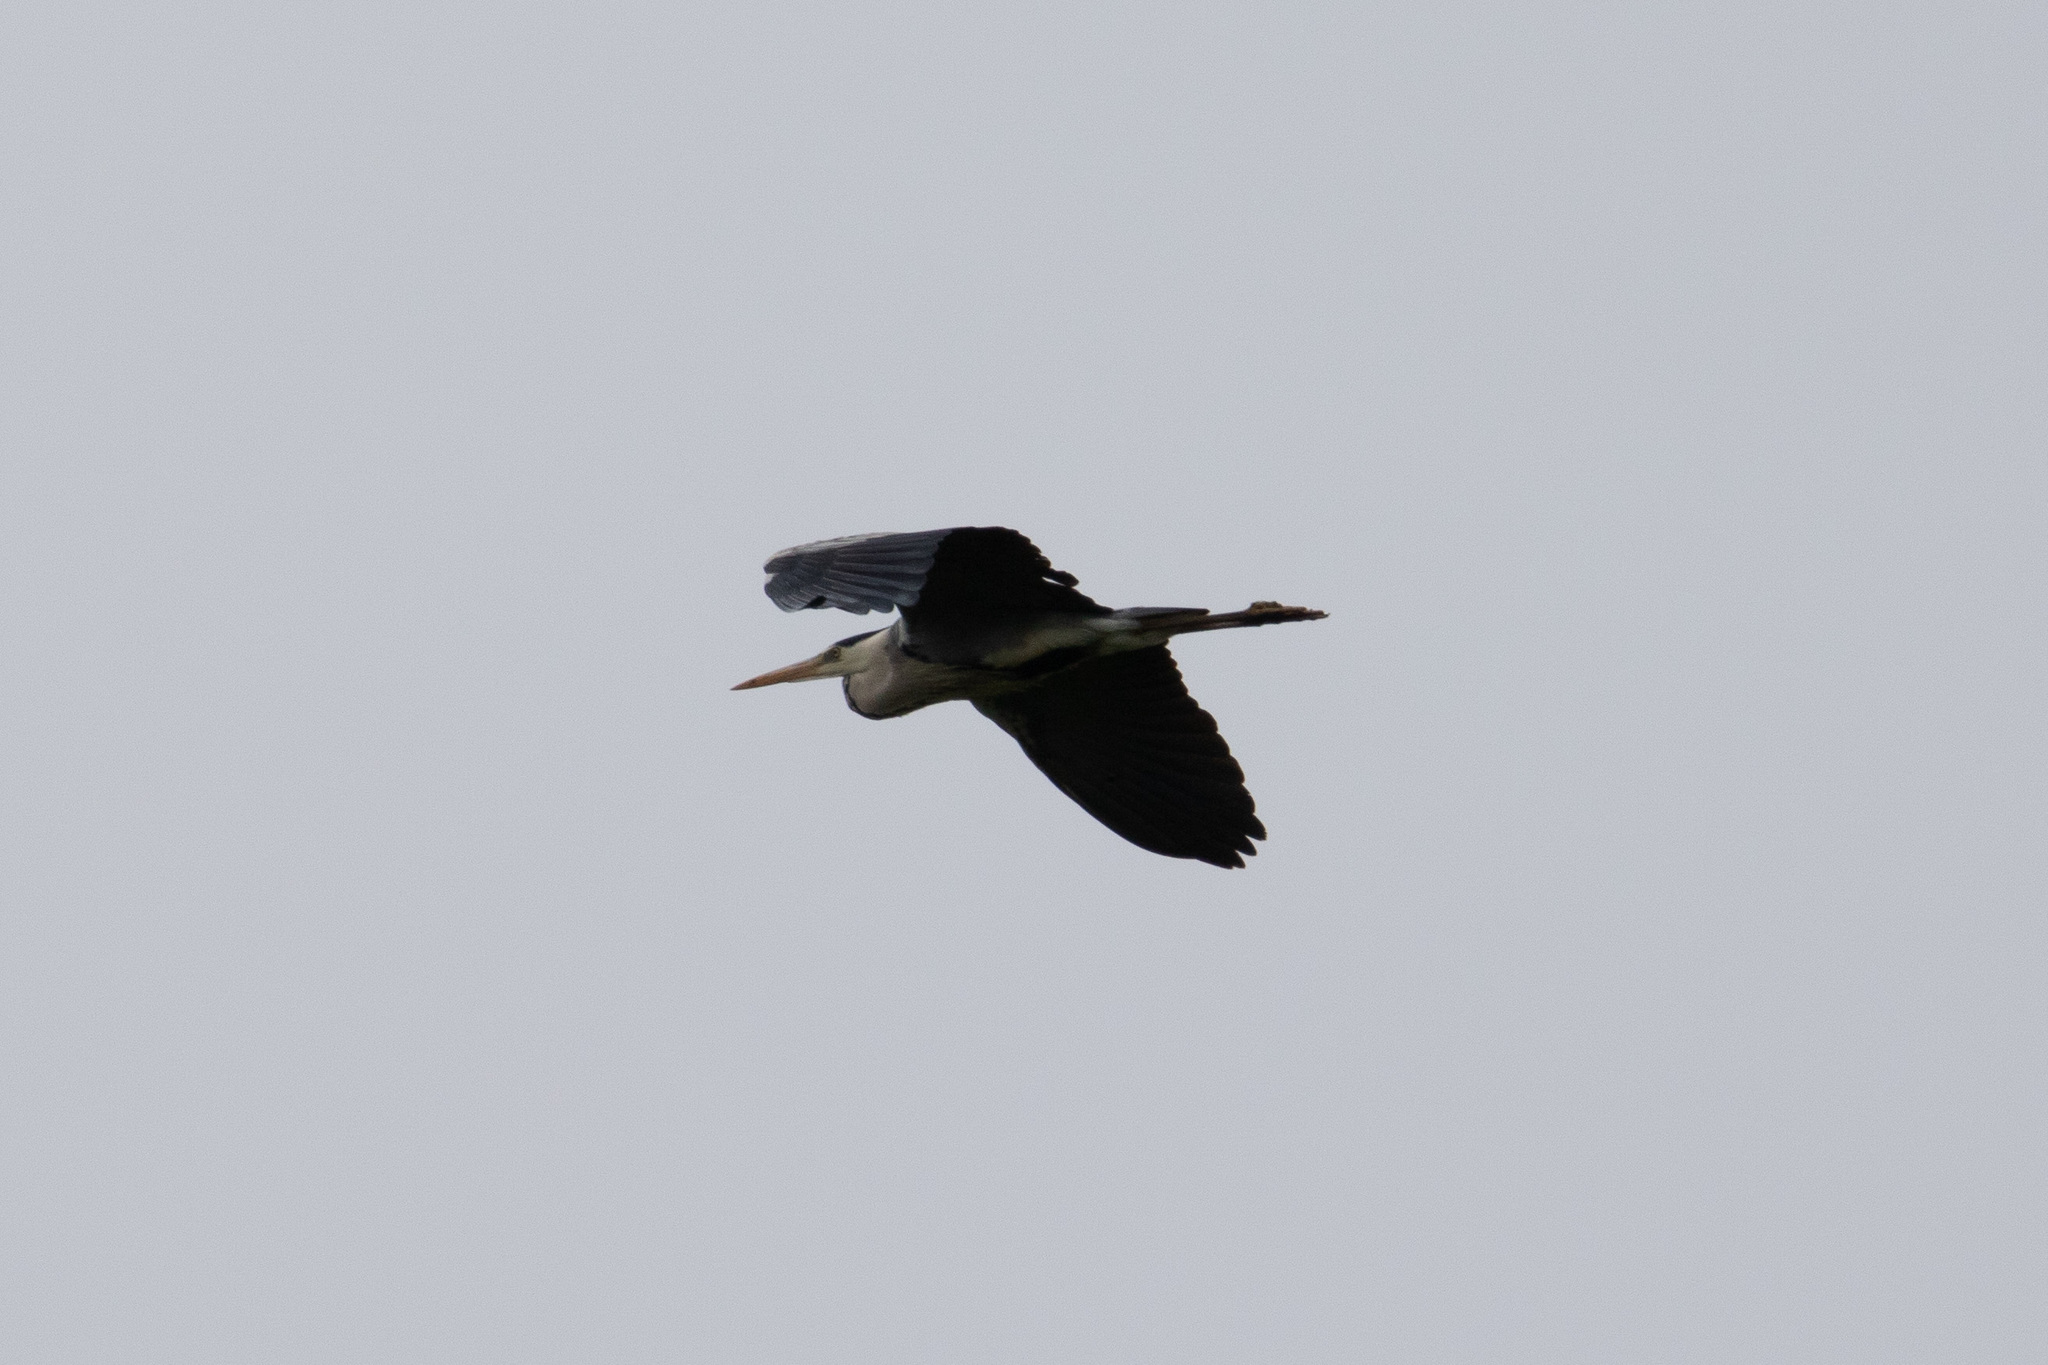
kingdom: Animalia
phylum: Chordata
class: Aves
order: Pelecaniformes
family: Ardeidae
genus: Ardea
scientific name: Ardea cinerea
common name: Grey heron
